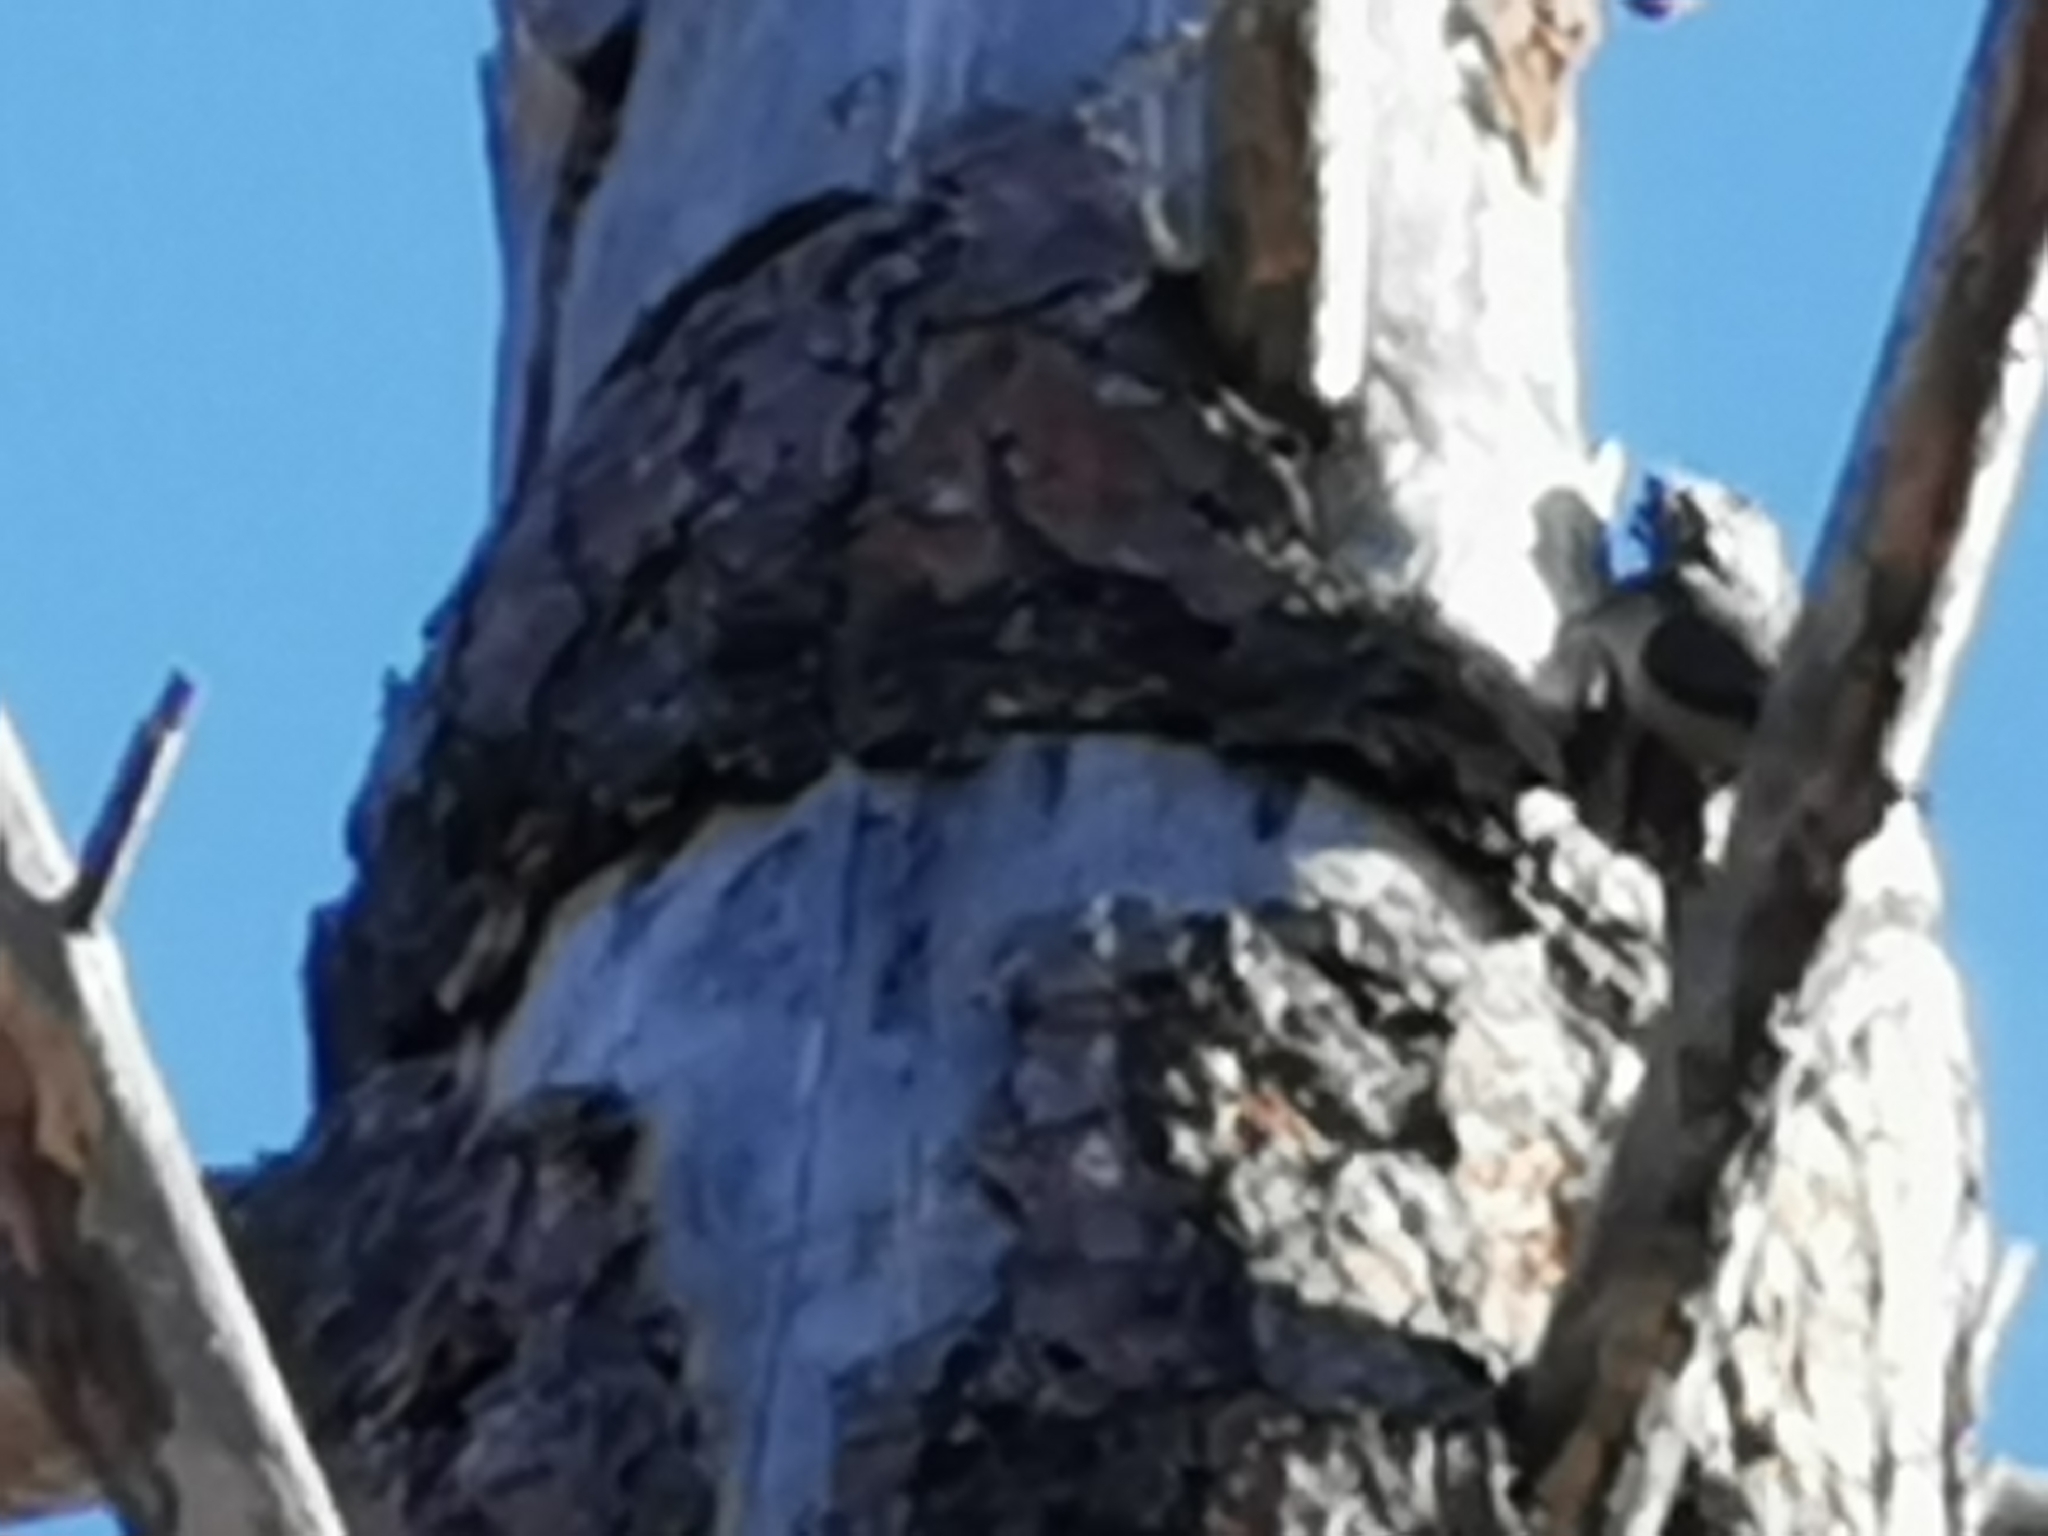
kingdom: Animalia
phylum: Chordata
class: Aves
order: Passeriformes
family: Sittidae
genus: Sitta
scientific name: Sitta pygmaea
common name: Pygmy nuthatch
